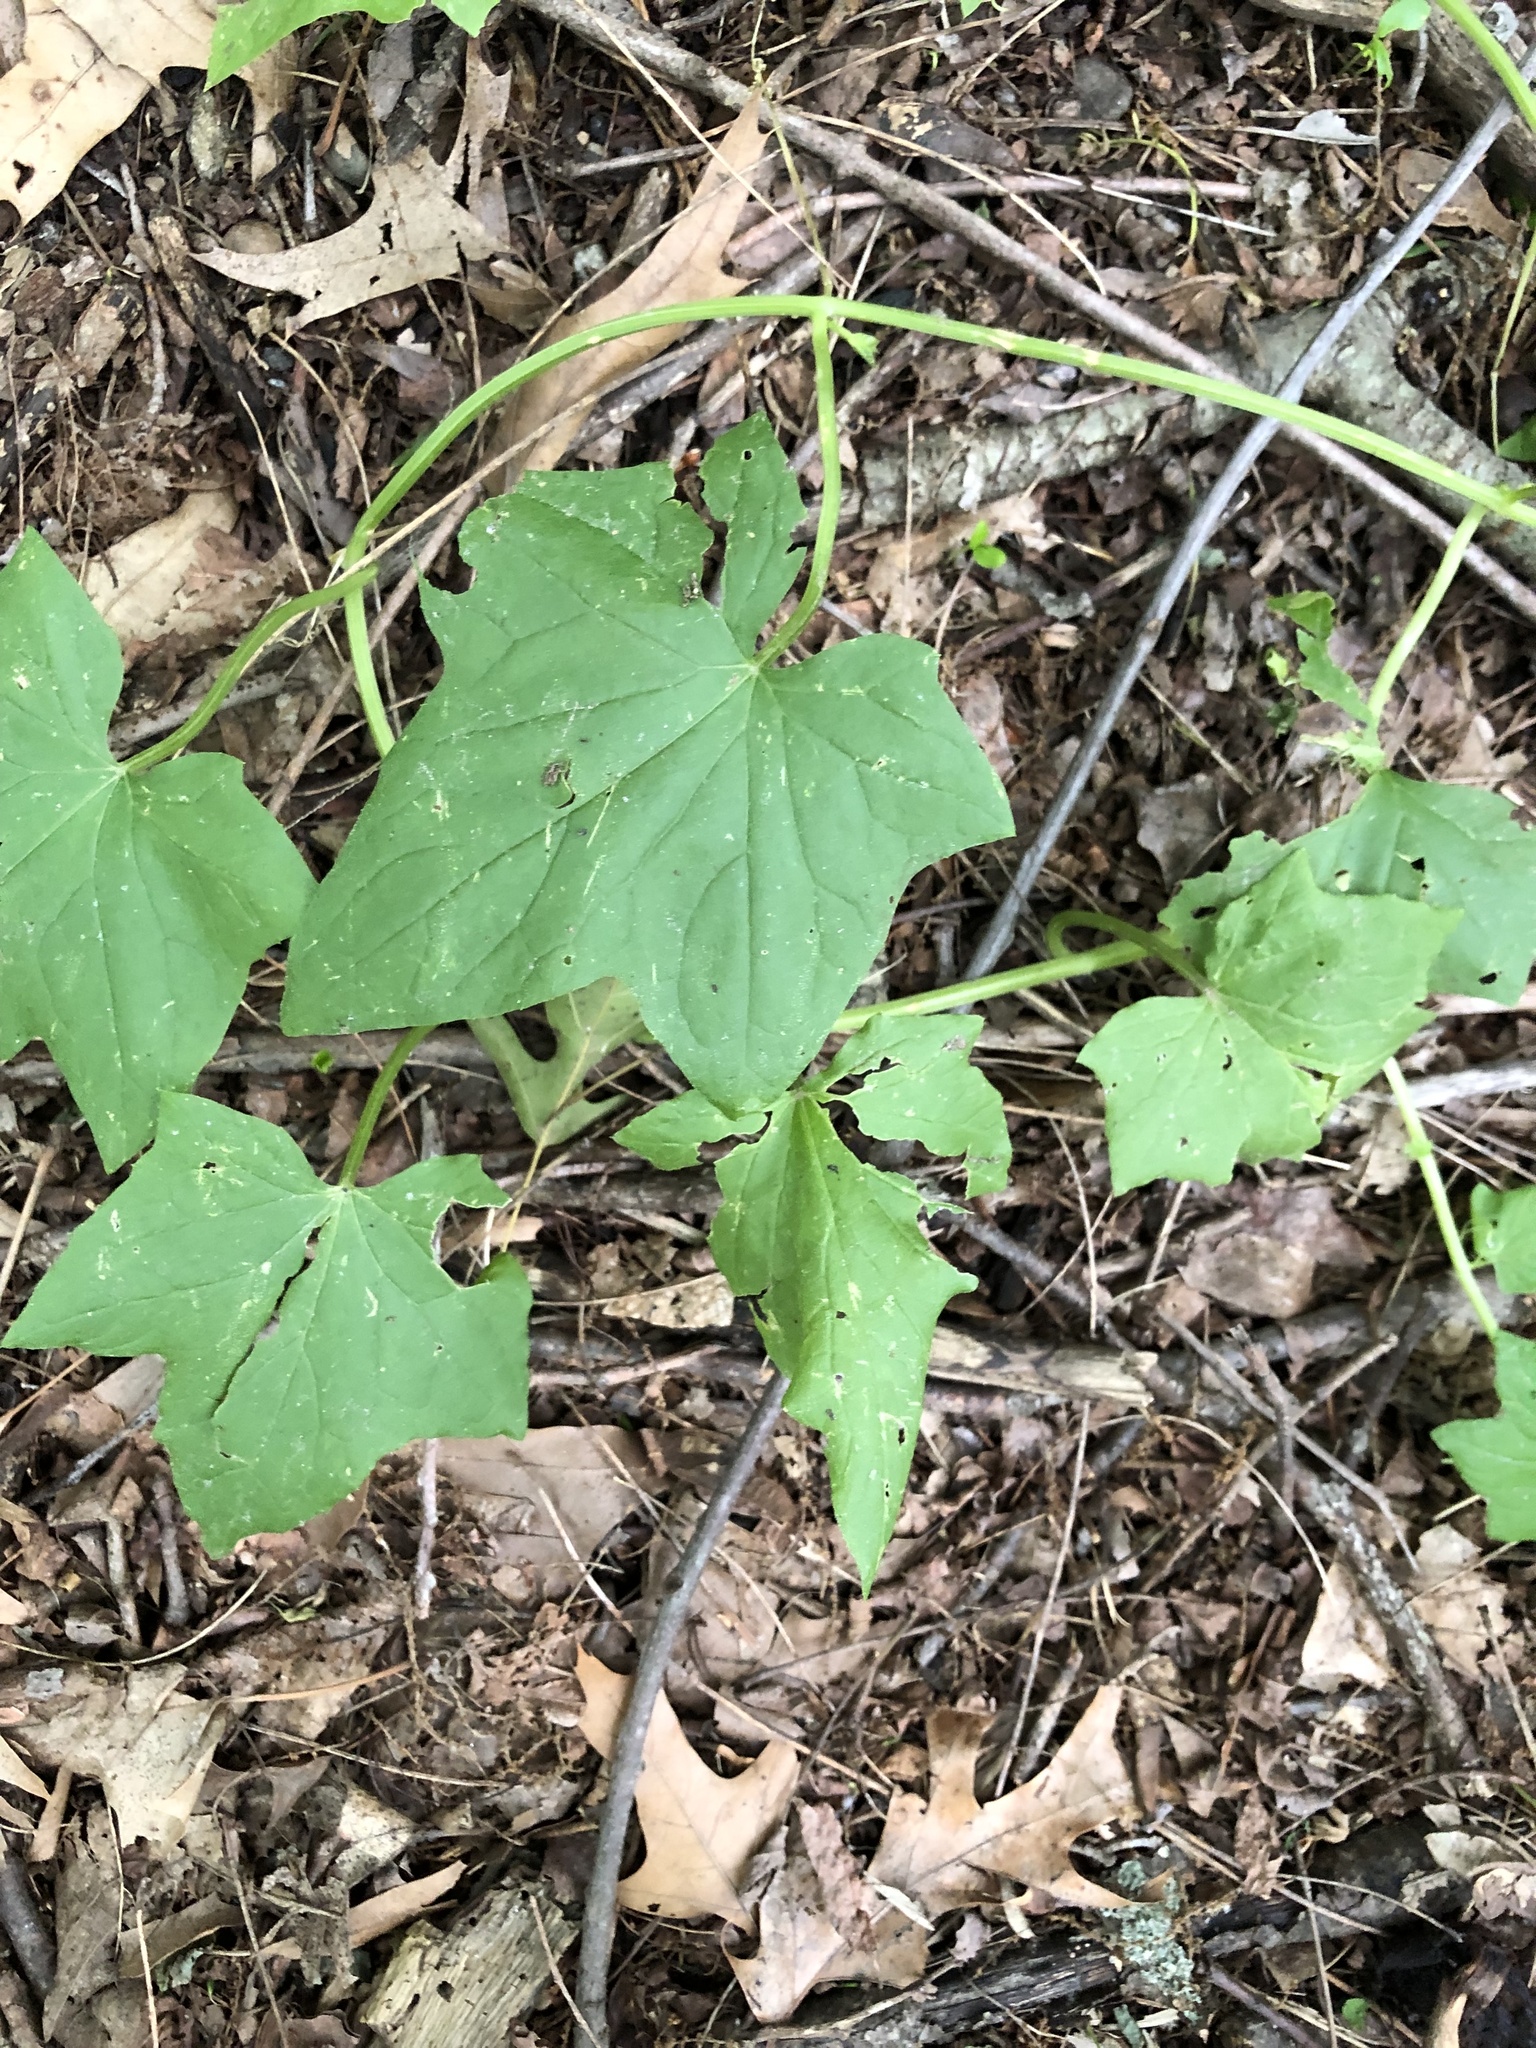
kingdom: Plantae
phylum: Tracheophyta
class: Magnoliopsida
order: Cucurbitales
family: Cucurbitaceae
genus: Echinocystis
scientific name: Echinocystis lobata
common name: Wild cucumber
